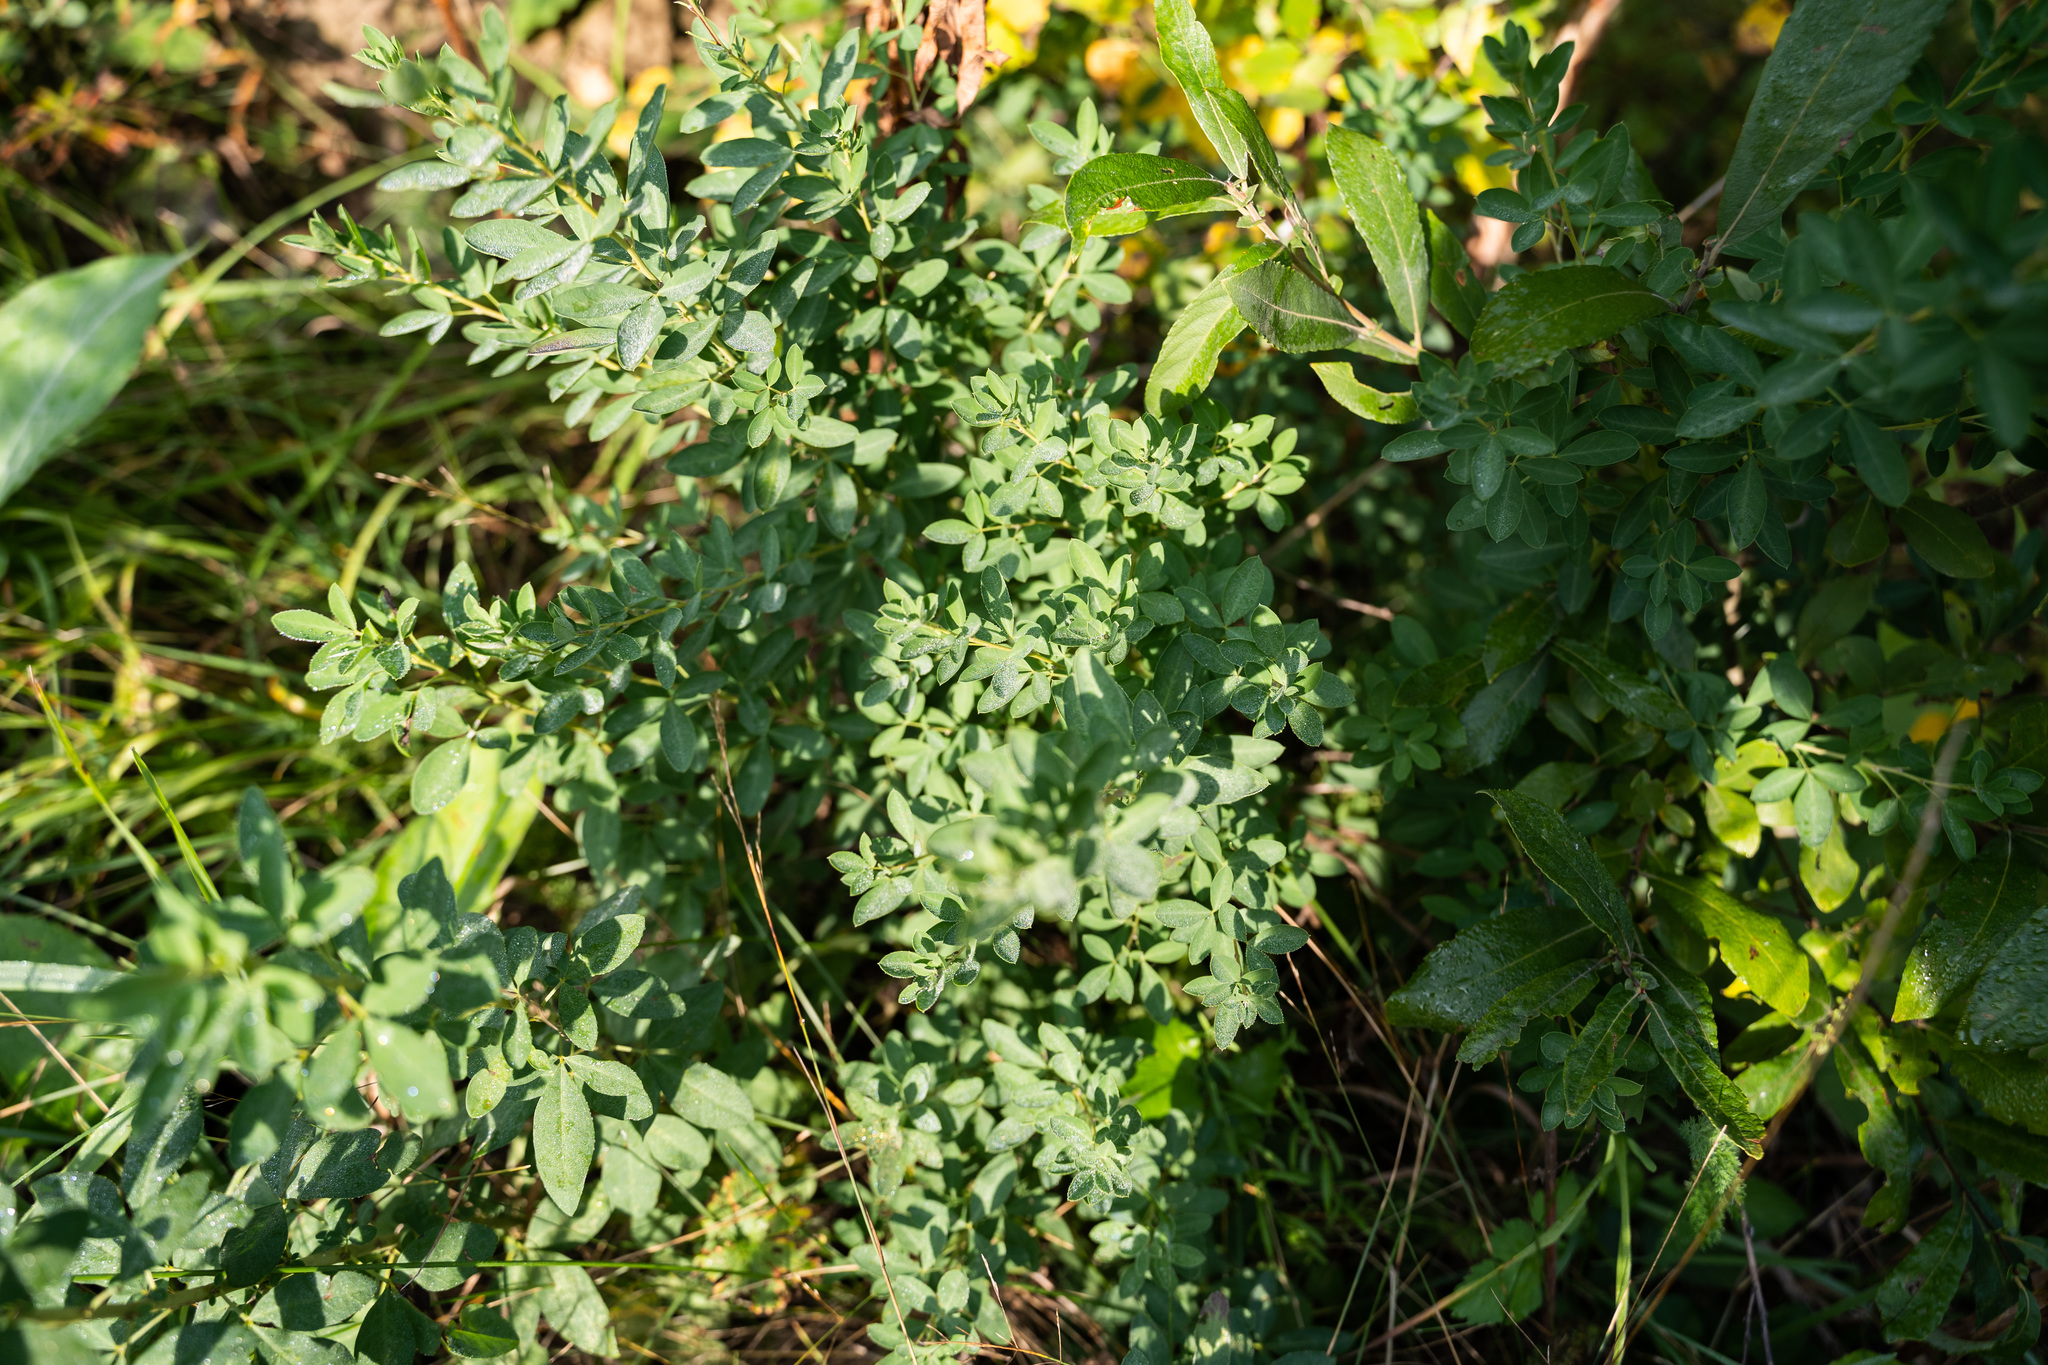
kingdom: Plantae
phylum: Tracheophyta
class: Magnoliopsida
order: Fabales
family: Fabaceae
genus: Chamaecytisus
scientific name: Chamaecytisus ruthenicus
